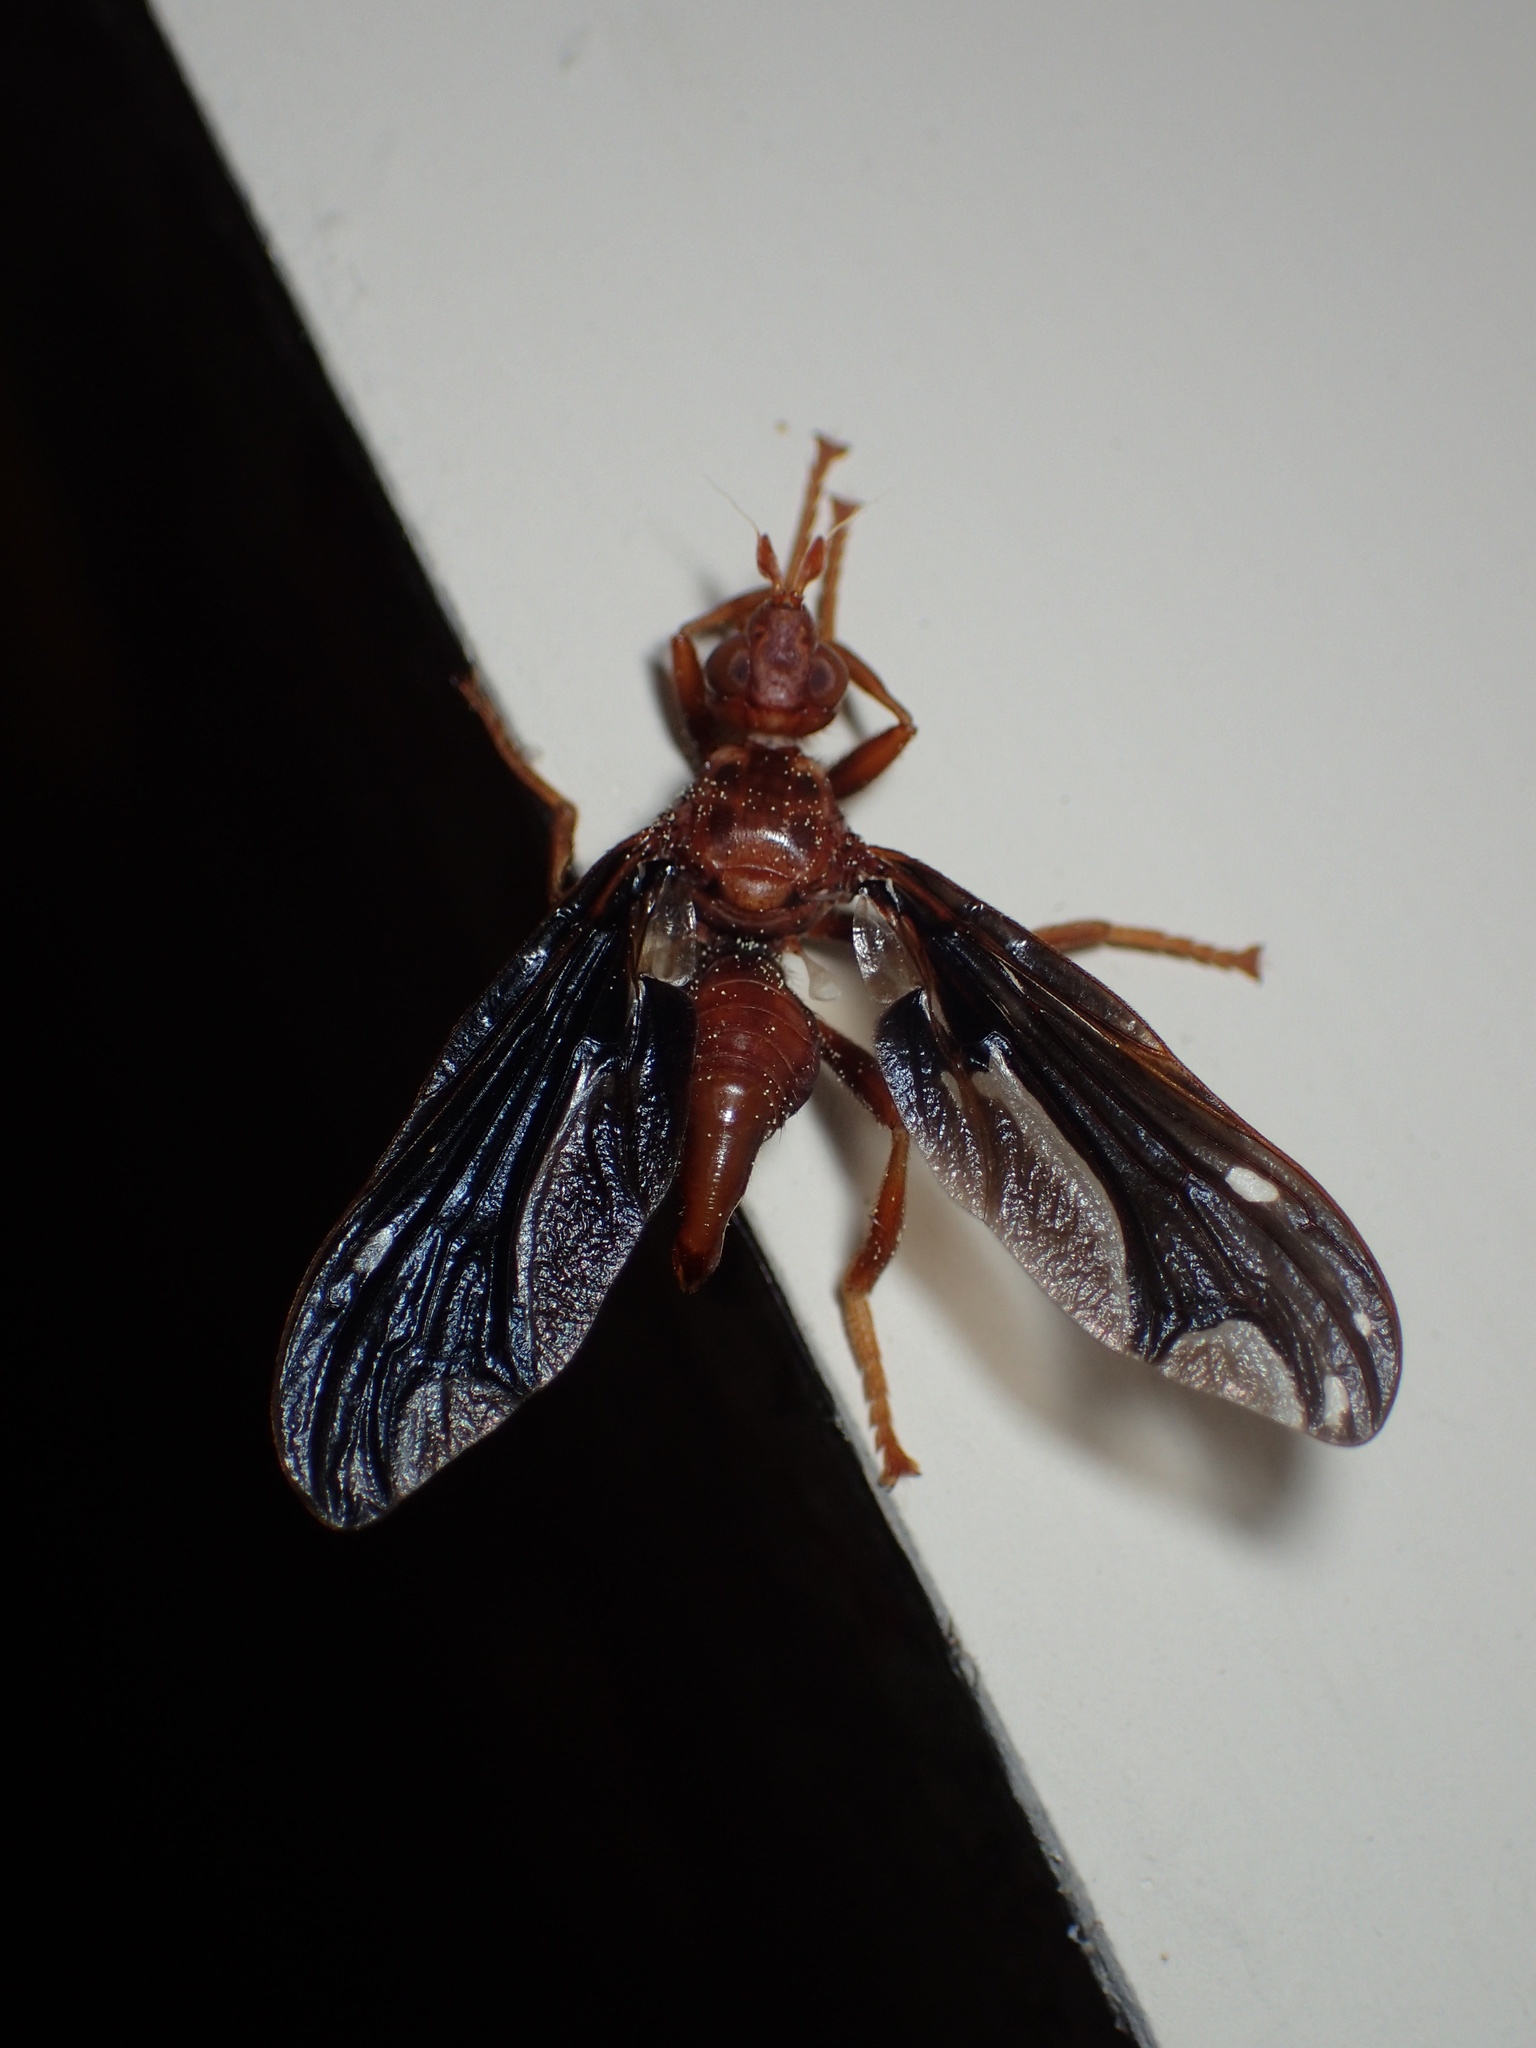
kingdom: Animalia
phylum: Arthropoda
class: Insecta
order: Diptera
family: Pyrgotidae
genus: Pyrgota
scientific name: Pyrgota undata
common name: Waved light fly
